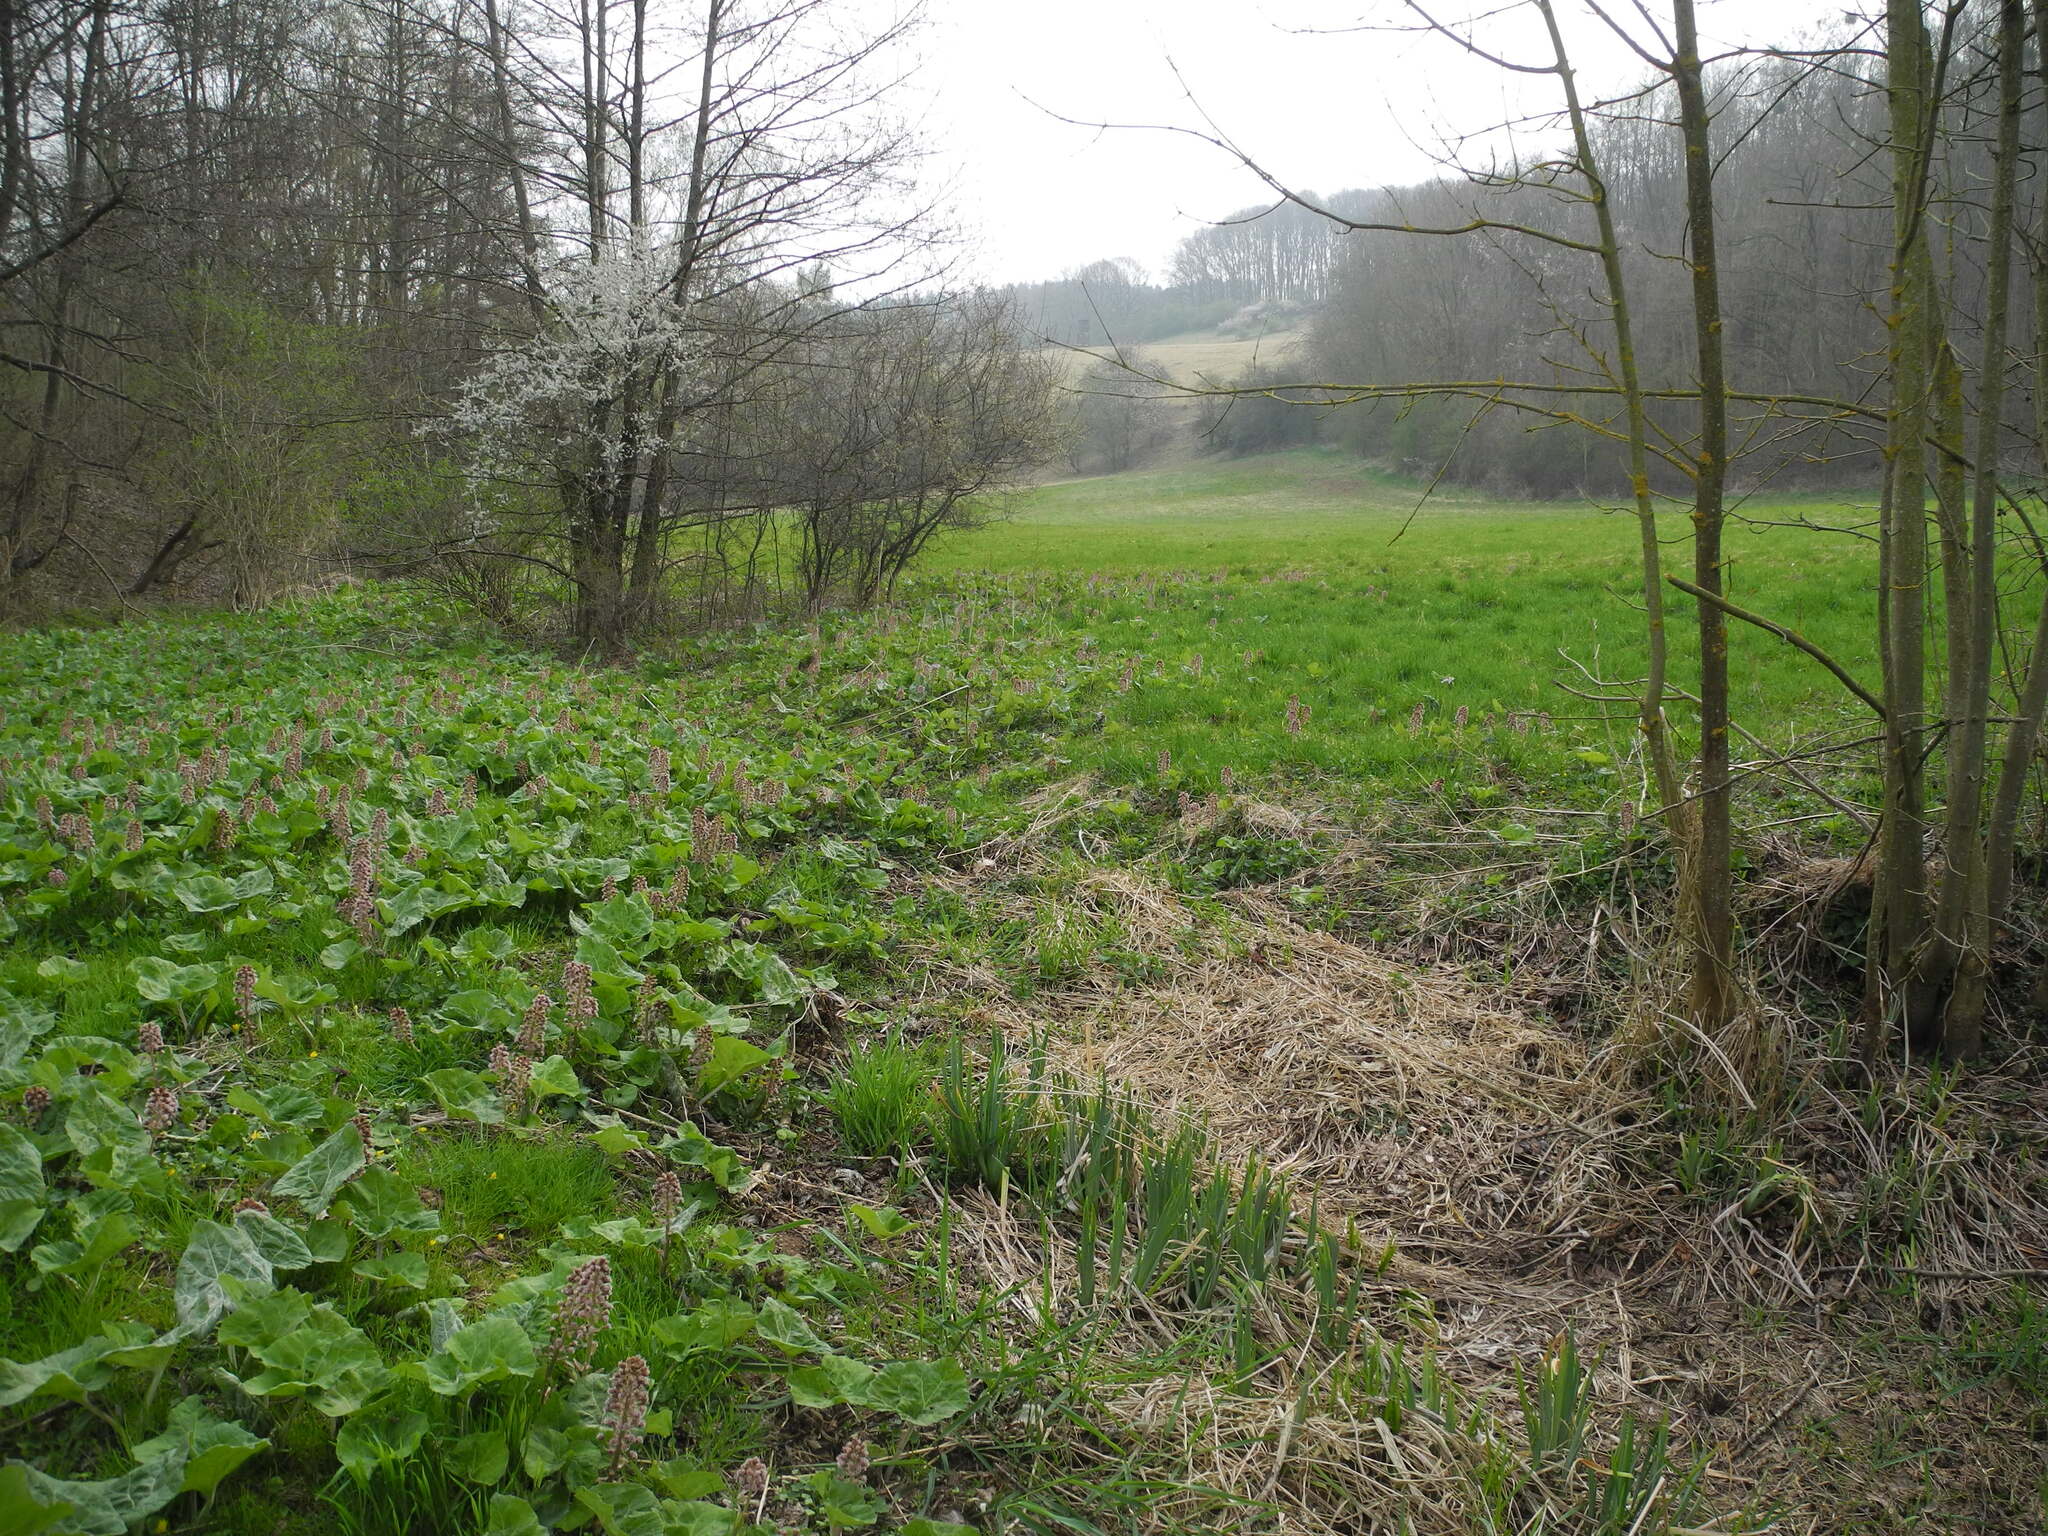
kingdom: Plantae
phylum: Tracheophyta
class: Magnoliopsida
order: Asterales
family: Asteraceae
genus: Petasites
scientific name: Petasites hybridus
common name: Butterbur
